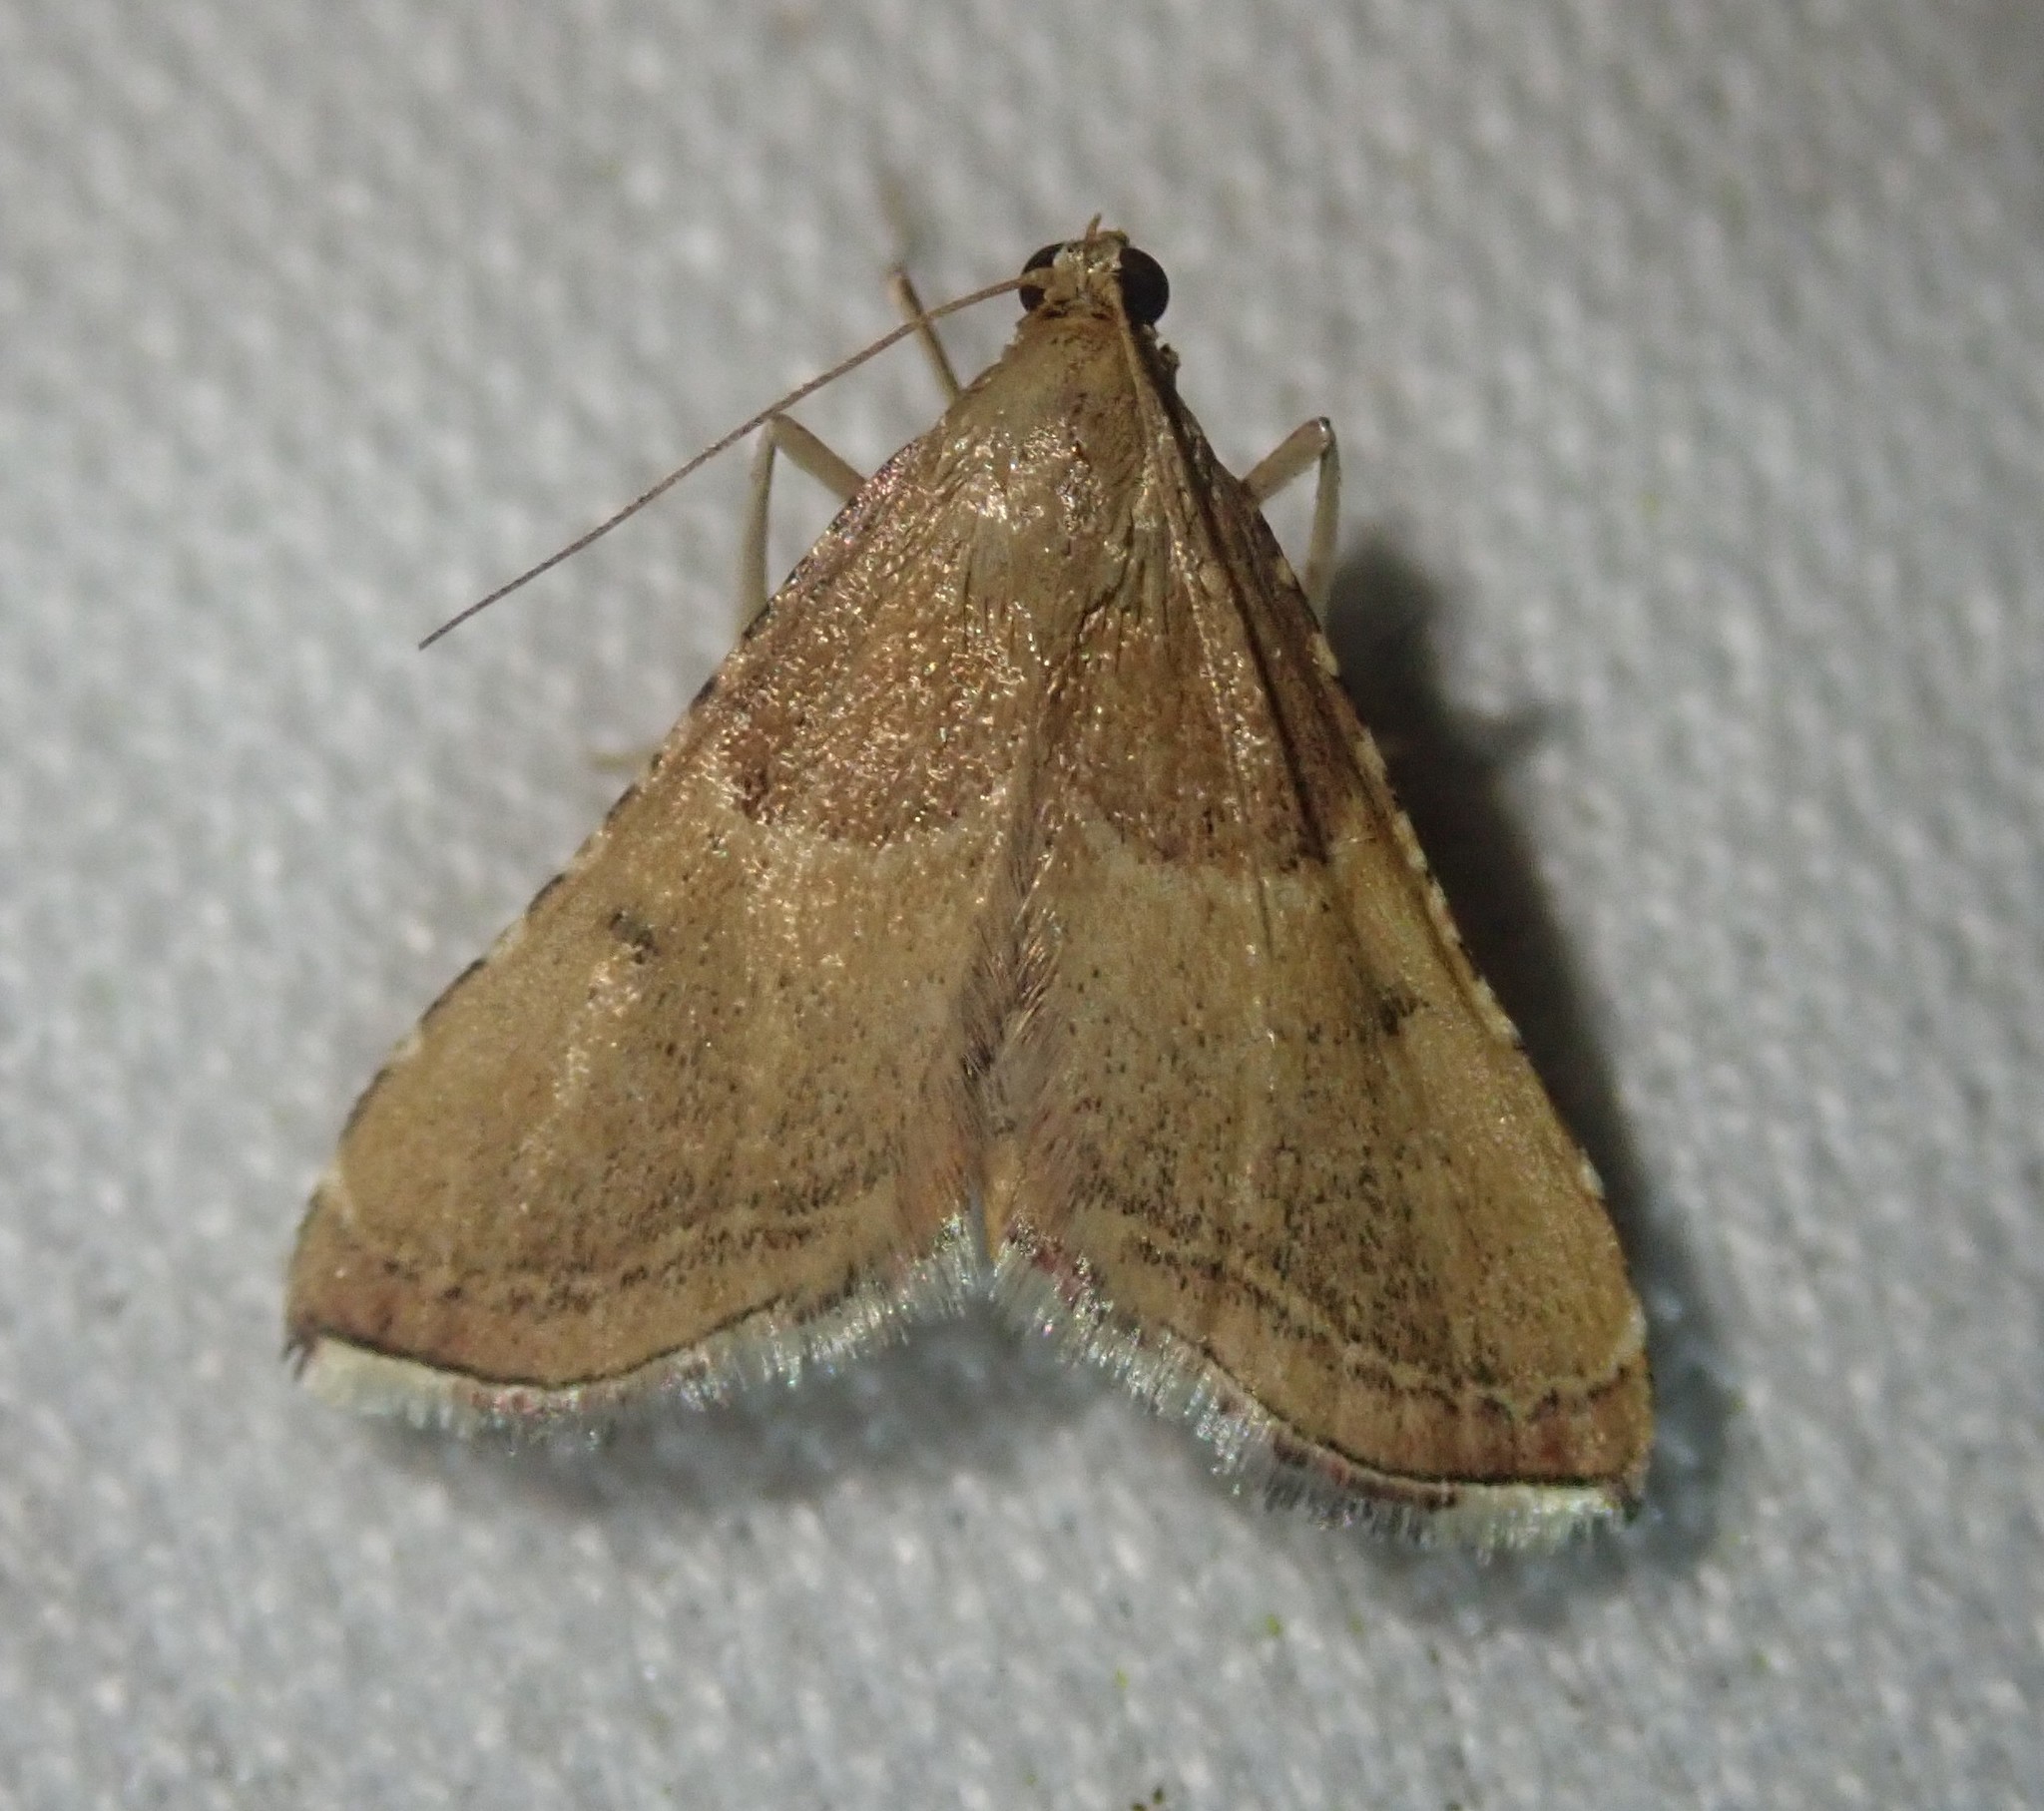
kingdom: Animalia
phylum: Arthropoda
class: Insecta
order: Lepidoptera
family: Pyralidae
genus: Endotricha
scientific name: Endotricha flammealis
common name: Rosy tabby
